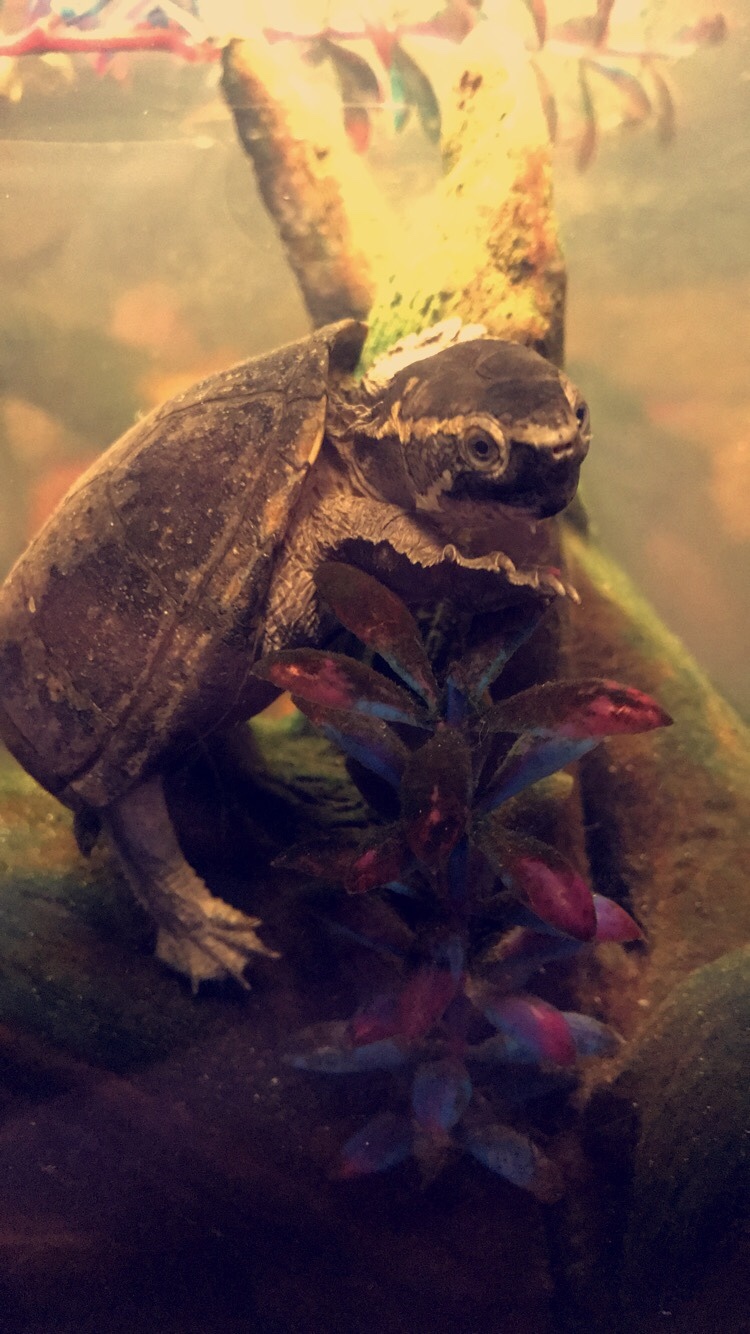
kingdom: Animalia
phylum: Chordata
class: Testudines
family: Kinosternidae
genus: Sternotherus
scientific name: Sternotherus odoratus
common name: Common musk turtle
